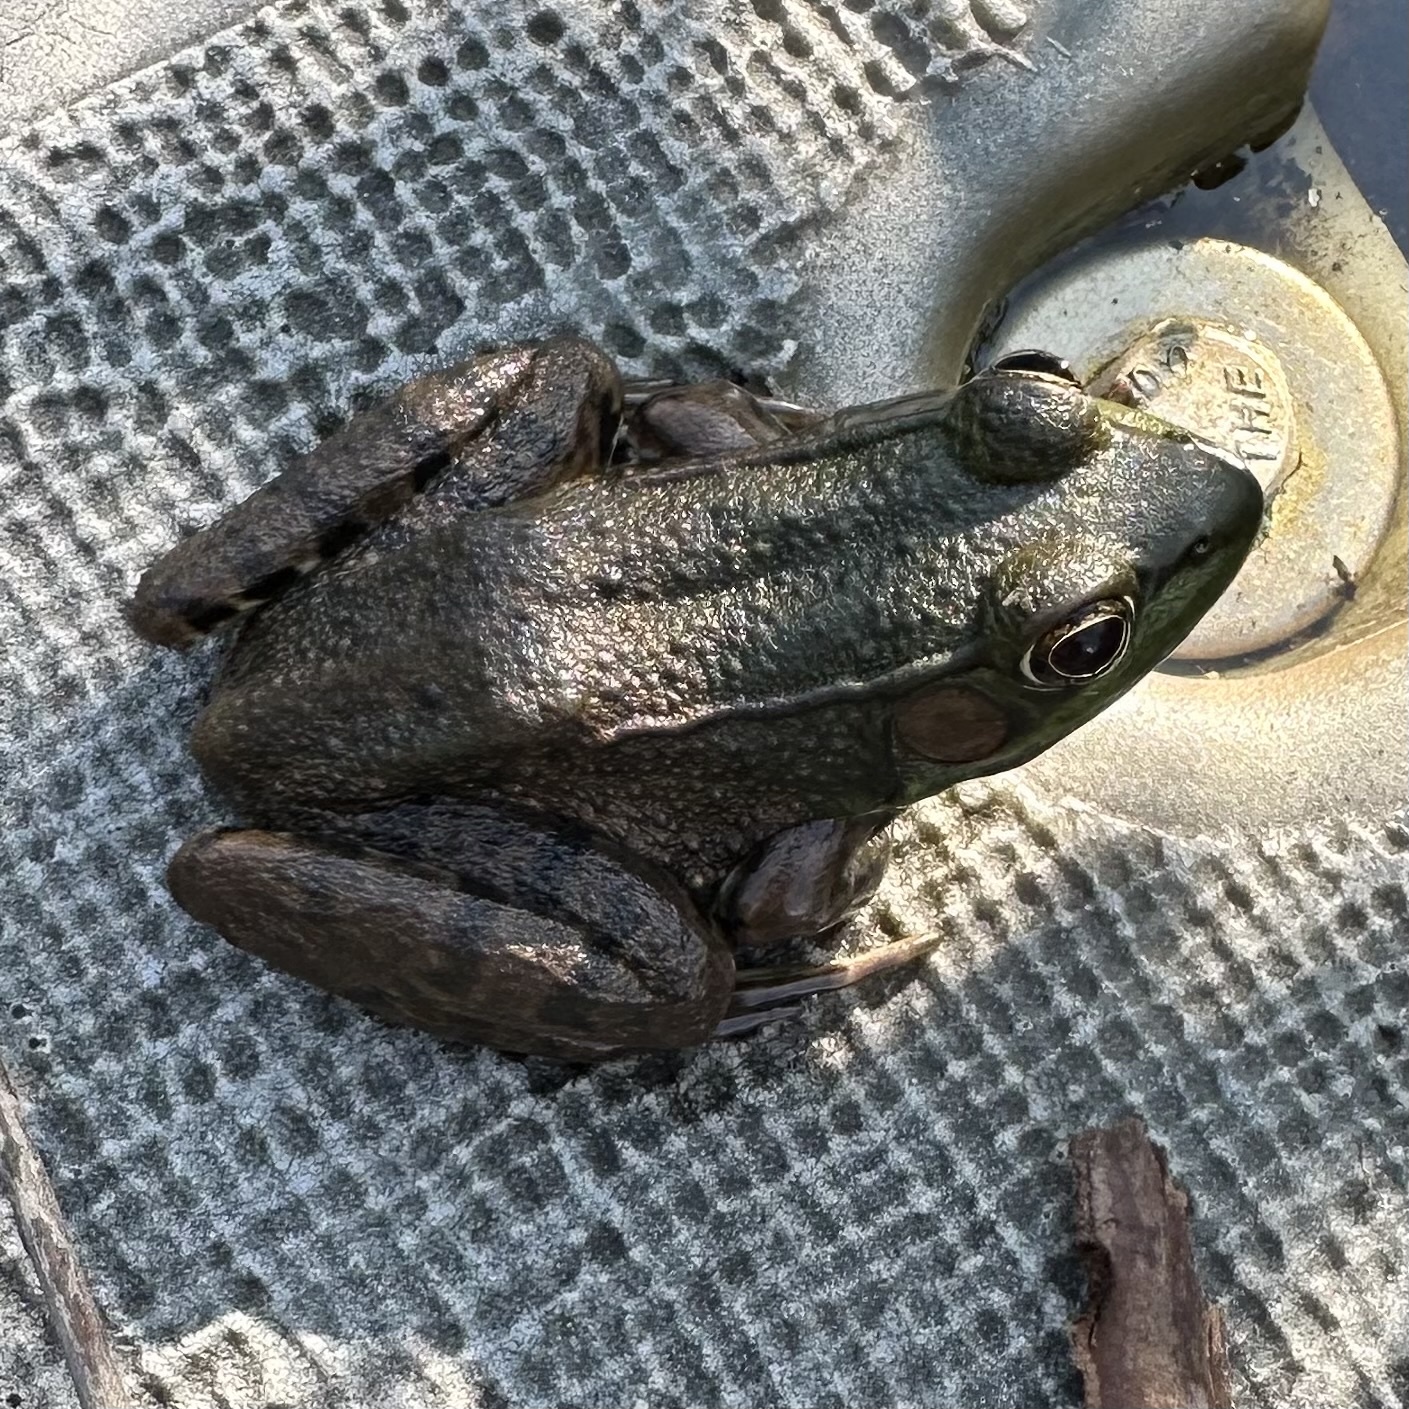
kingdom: Animalia
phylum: Chordata
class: Amphibia
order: Anura
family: Ranidae
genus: Lithobates
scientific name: Lithobates clamitans
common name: Green frog
